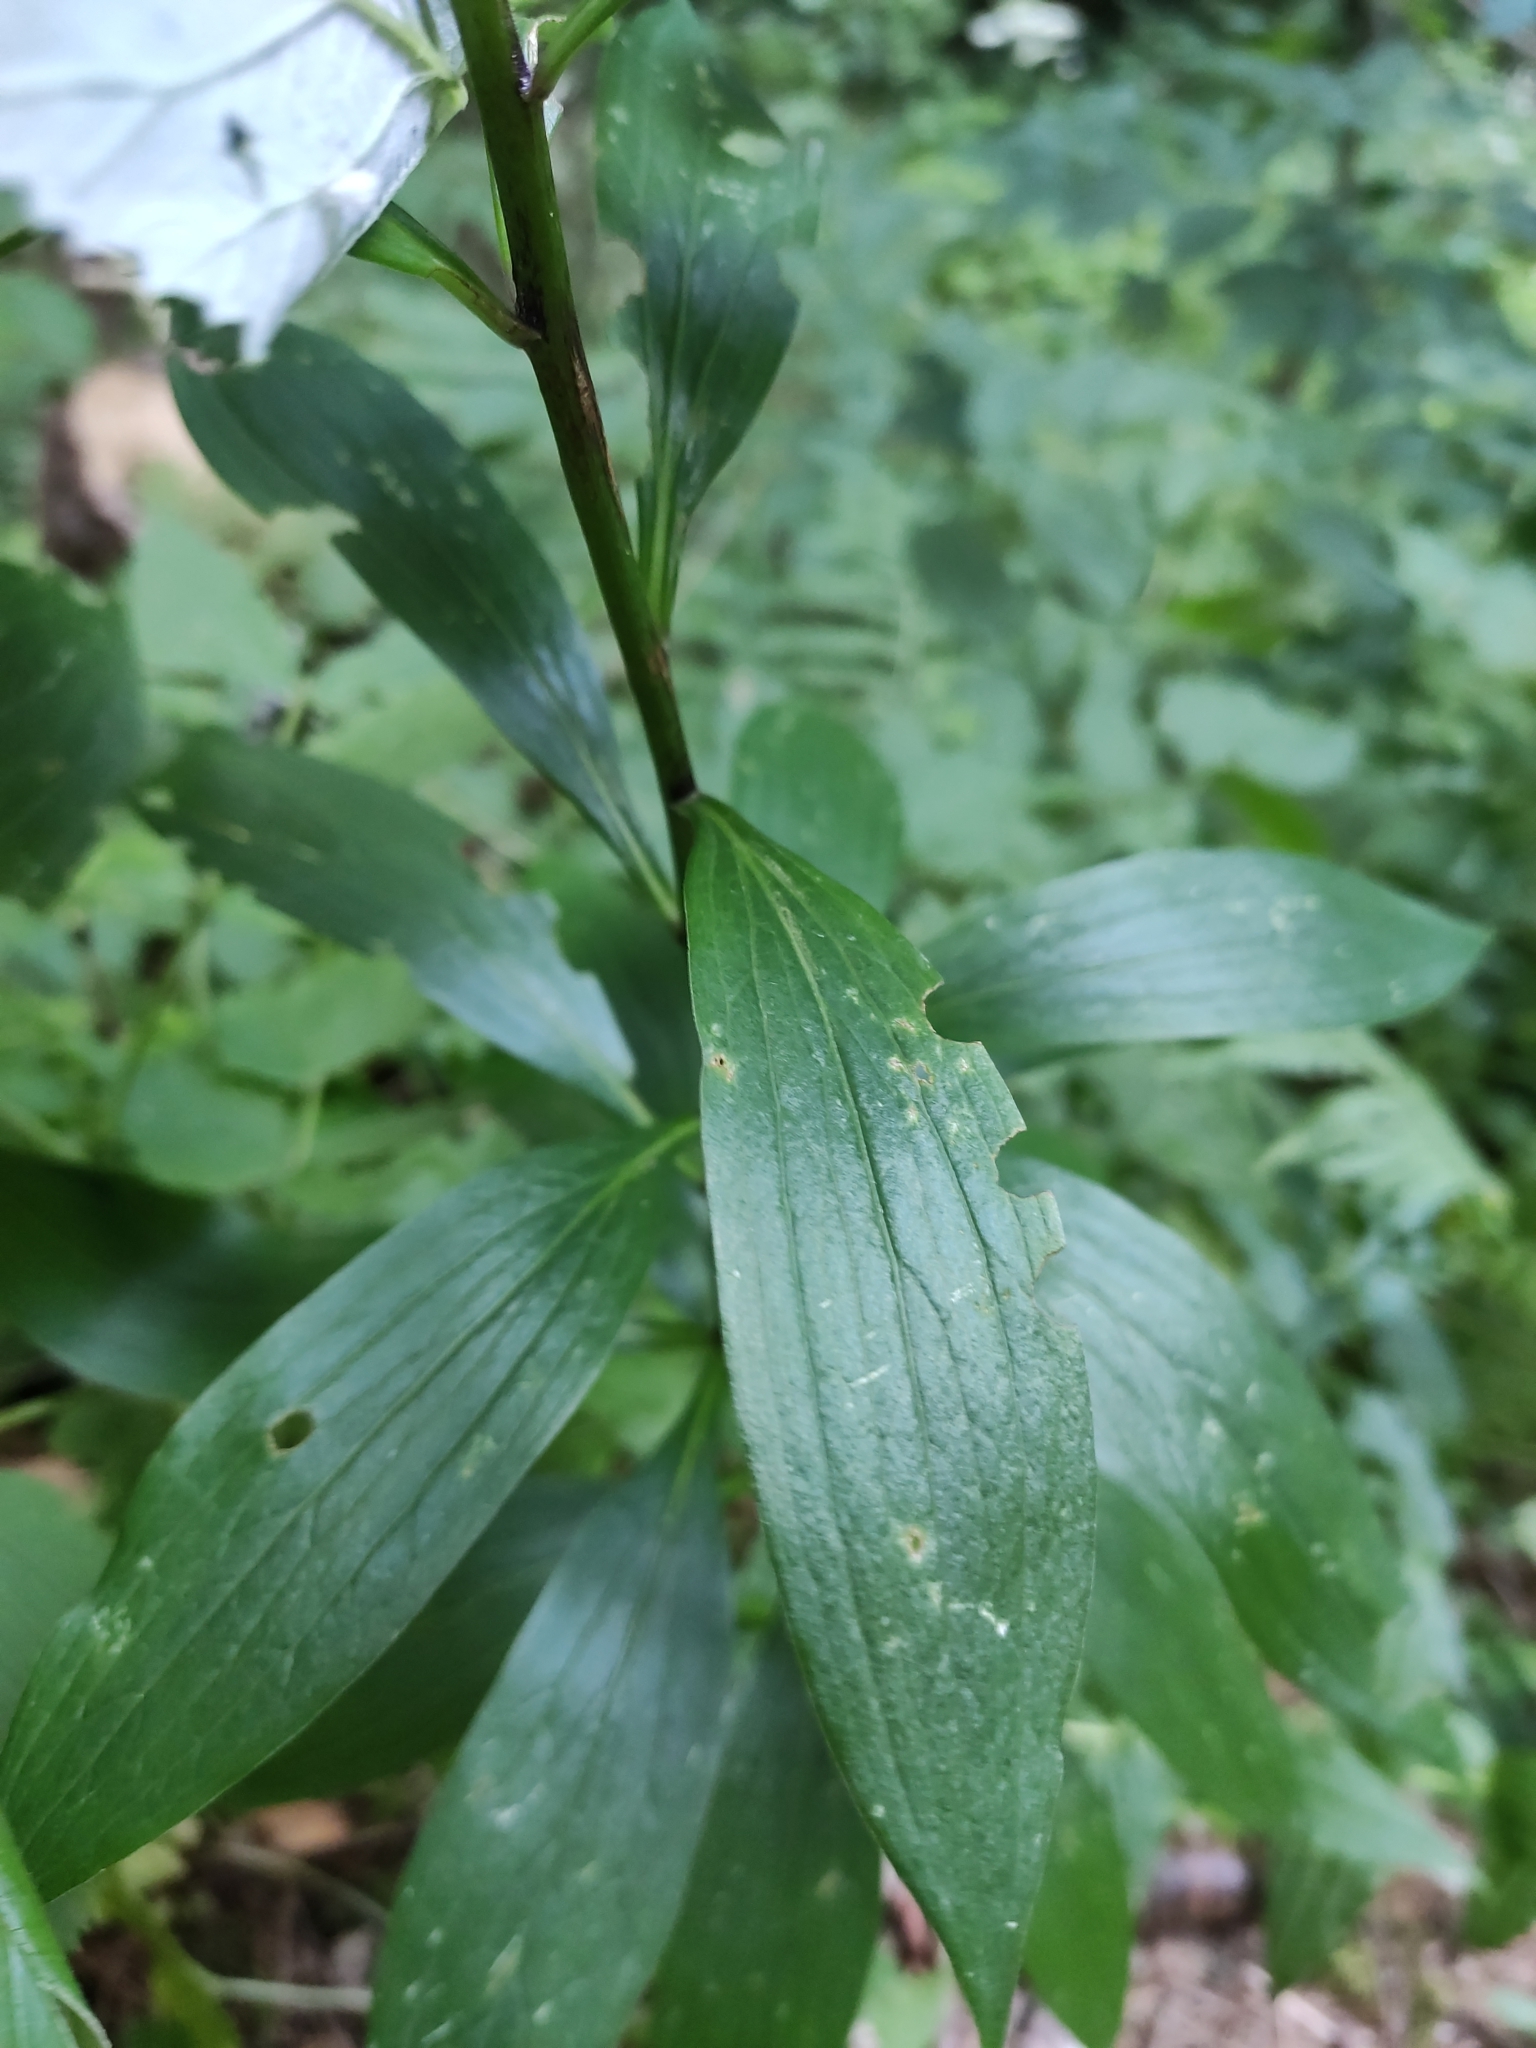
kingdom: Plantae
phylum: Tracheophyta
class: Liliopsida
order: Liliales
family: Liliaceae
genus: Lilium
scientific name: Lilium martagon
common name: Martagon lily
